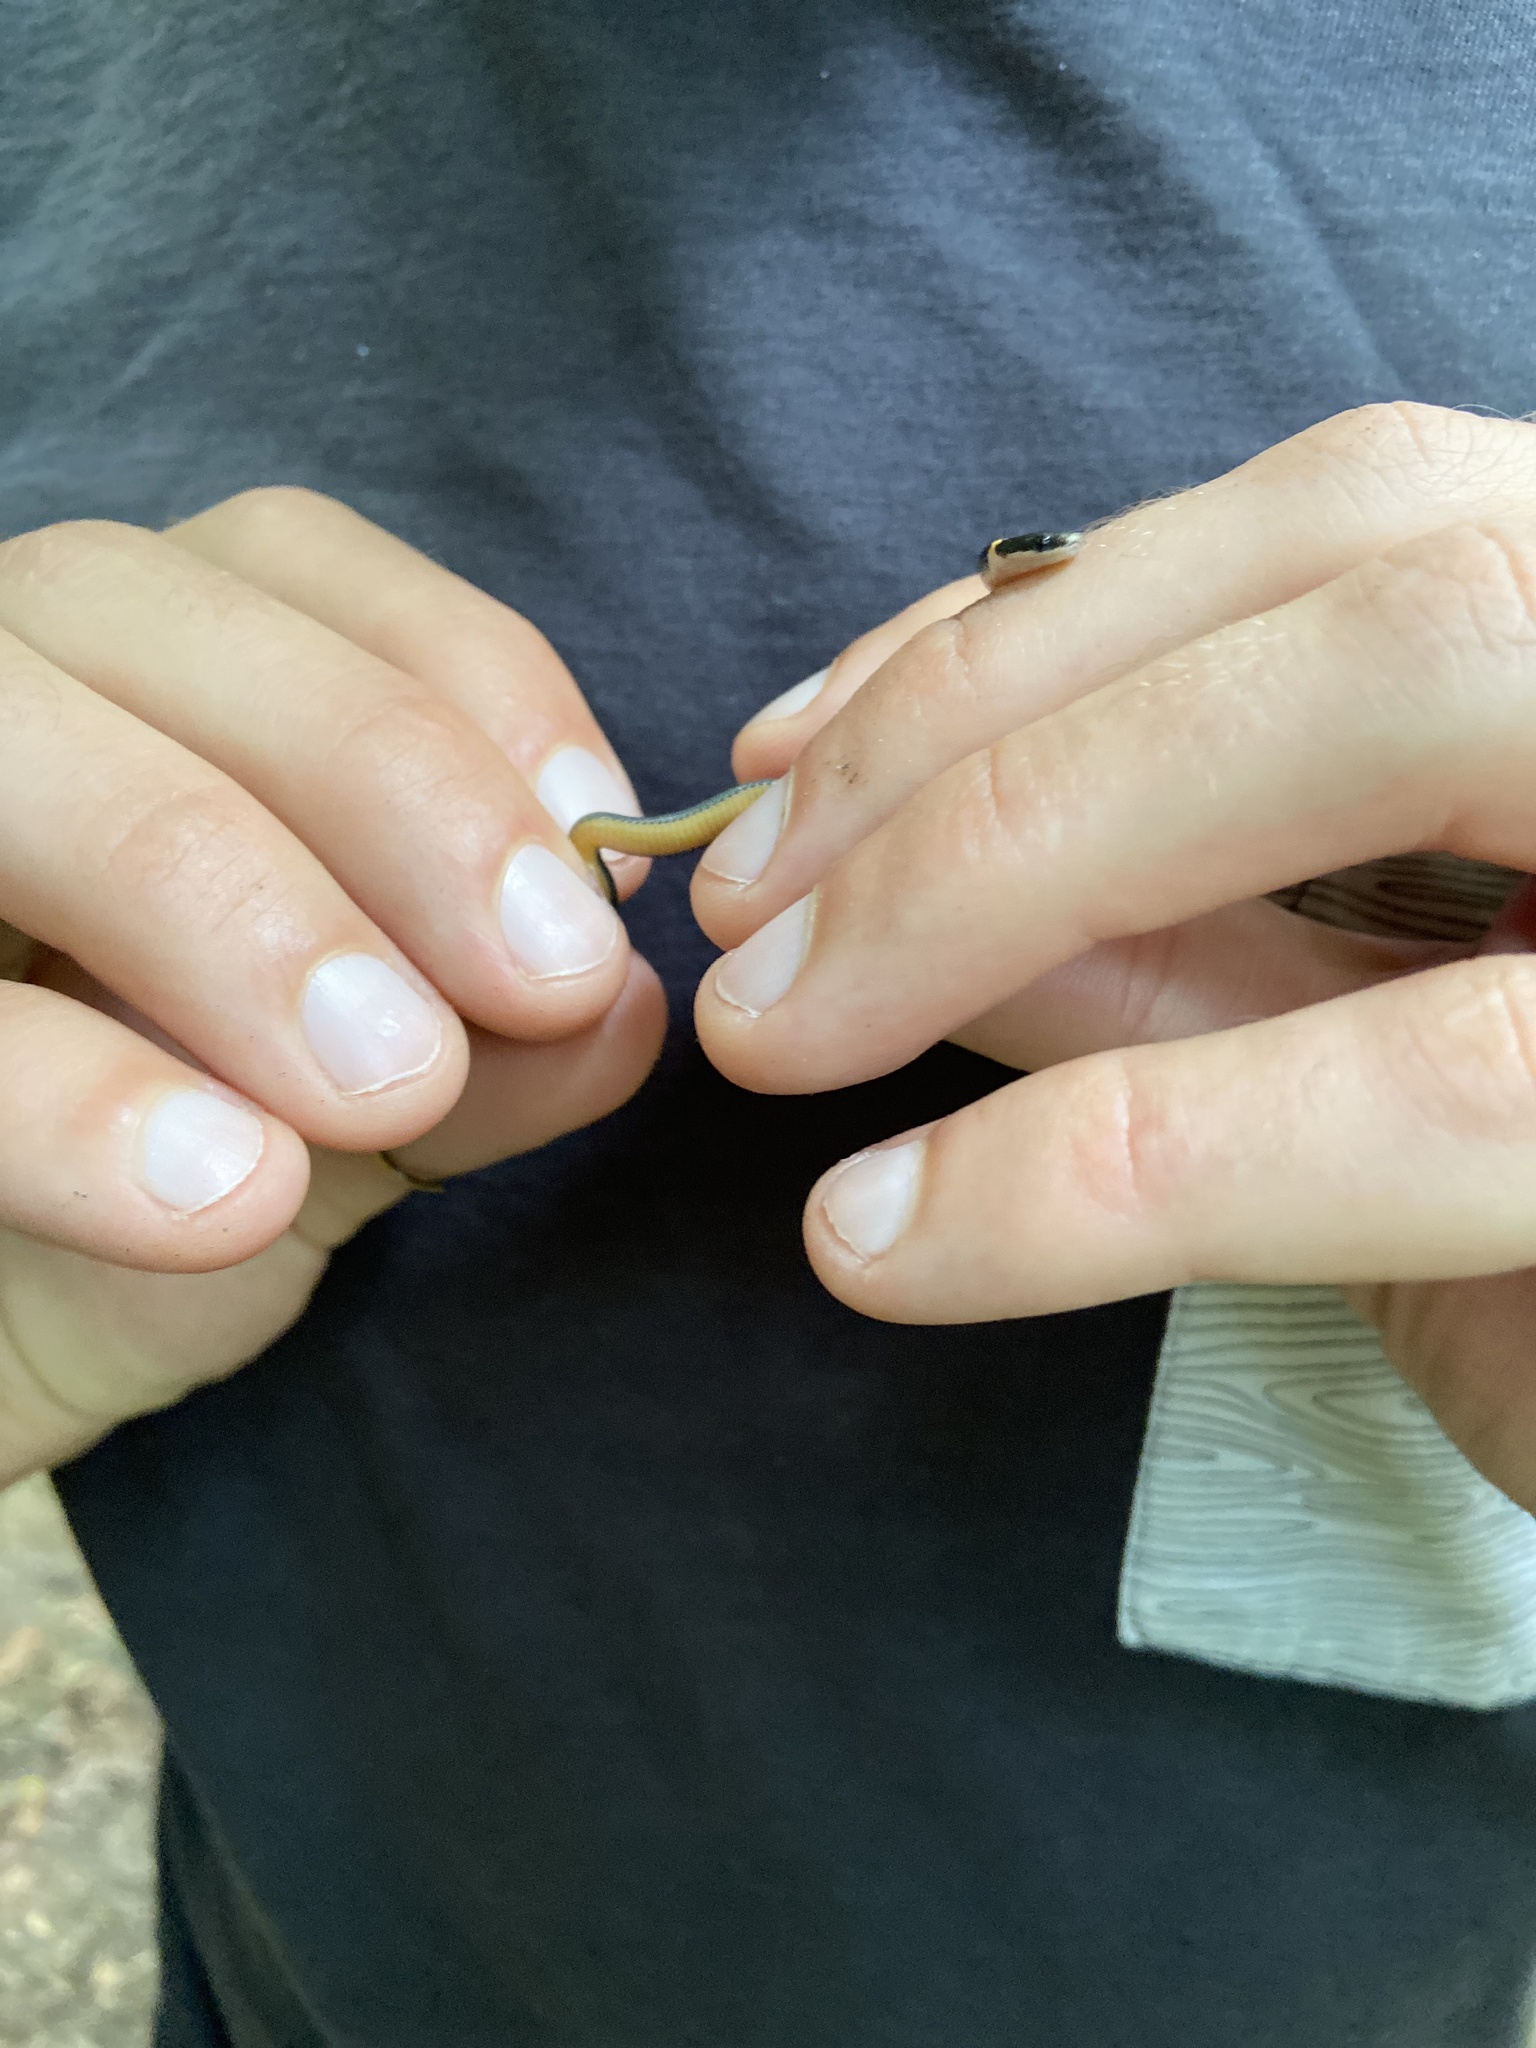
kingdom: Animalia
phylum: Chordata
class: Squamata
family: Colubridae
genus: Diadophis
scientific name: Diadophis punctatus
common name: Ringneck snake
